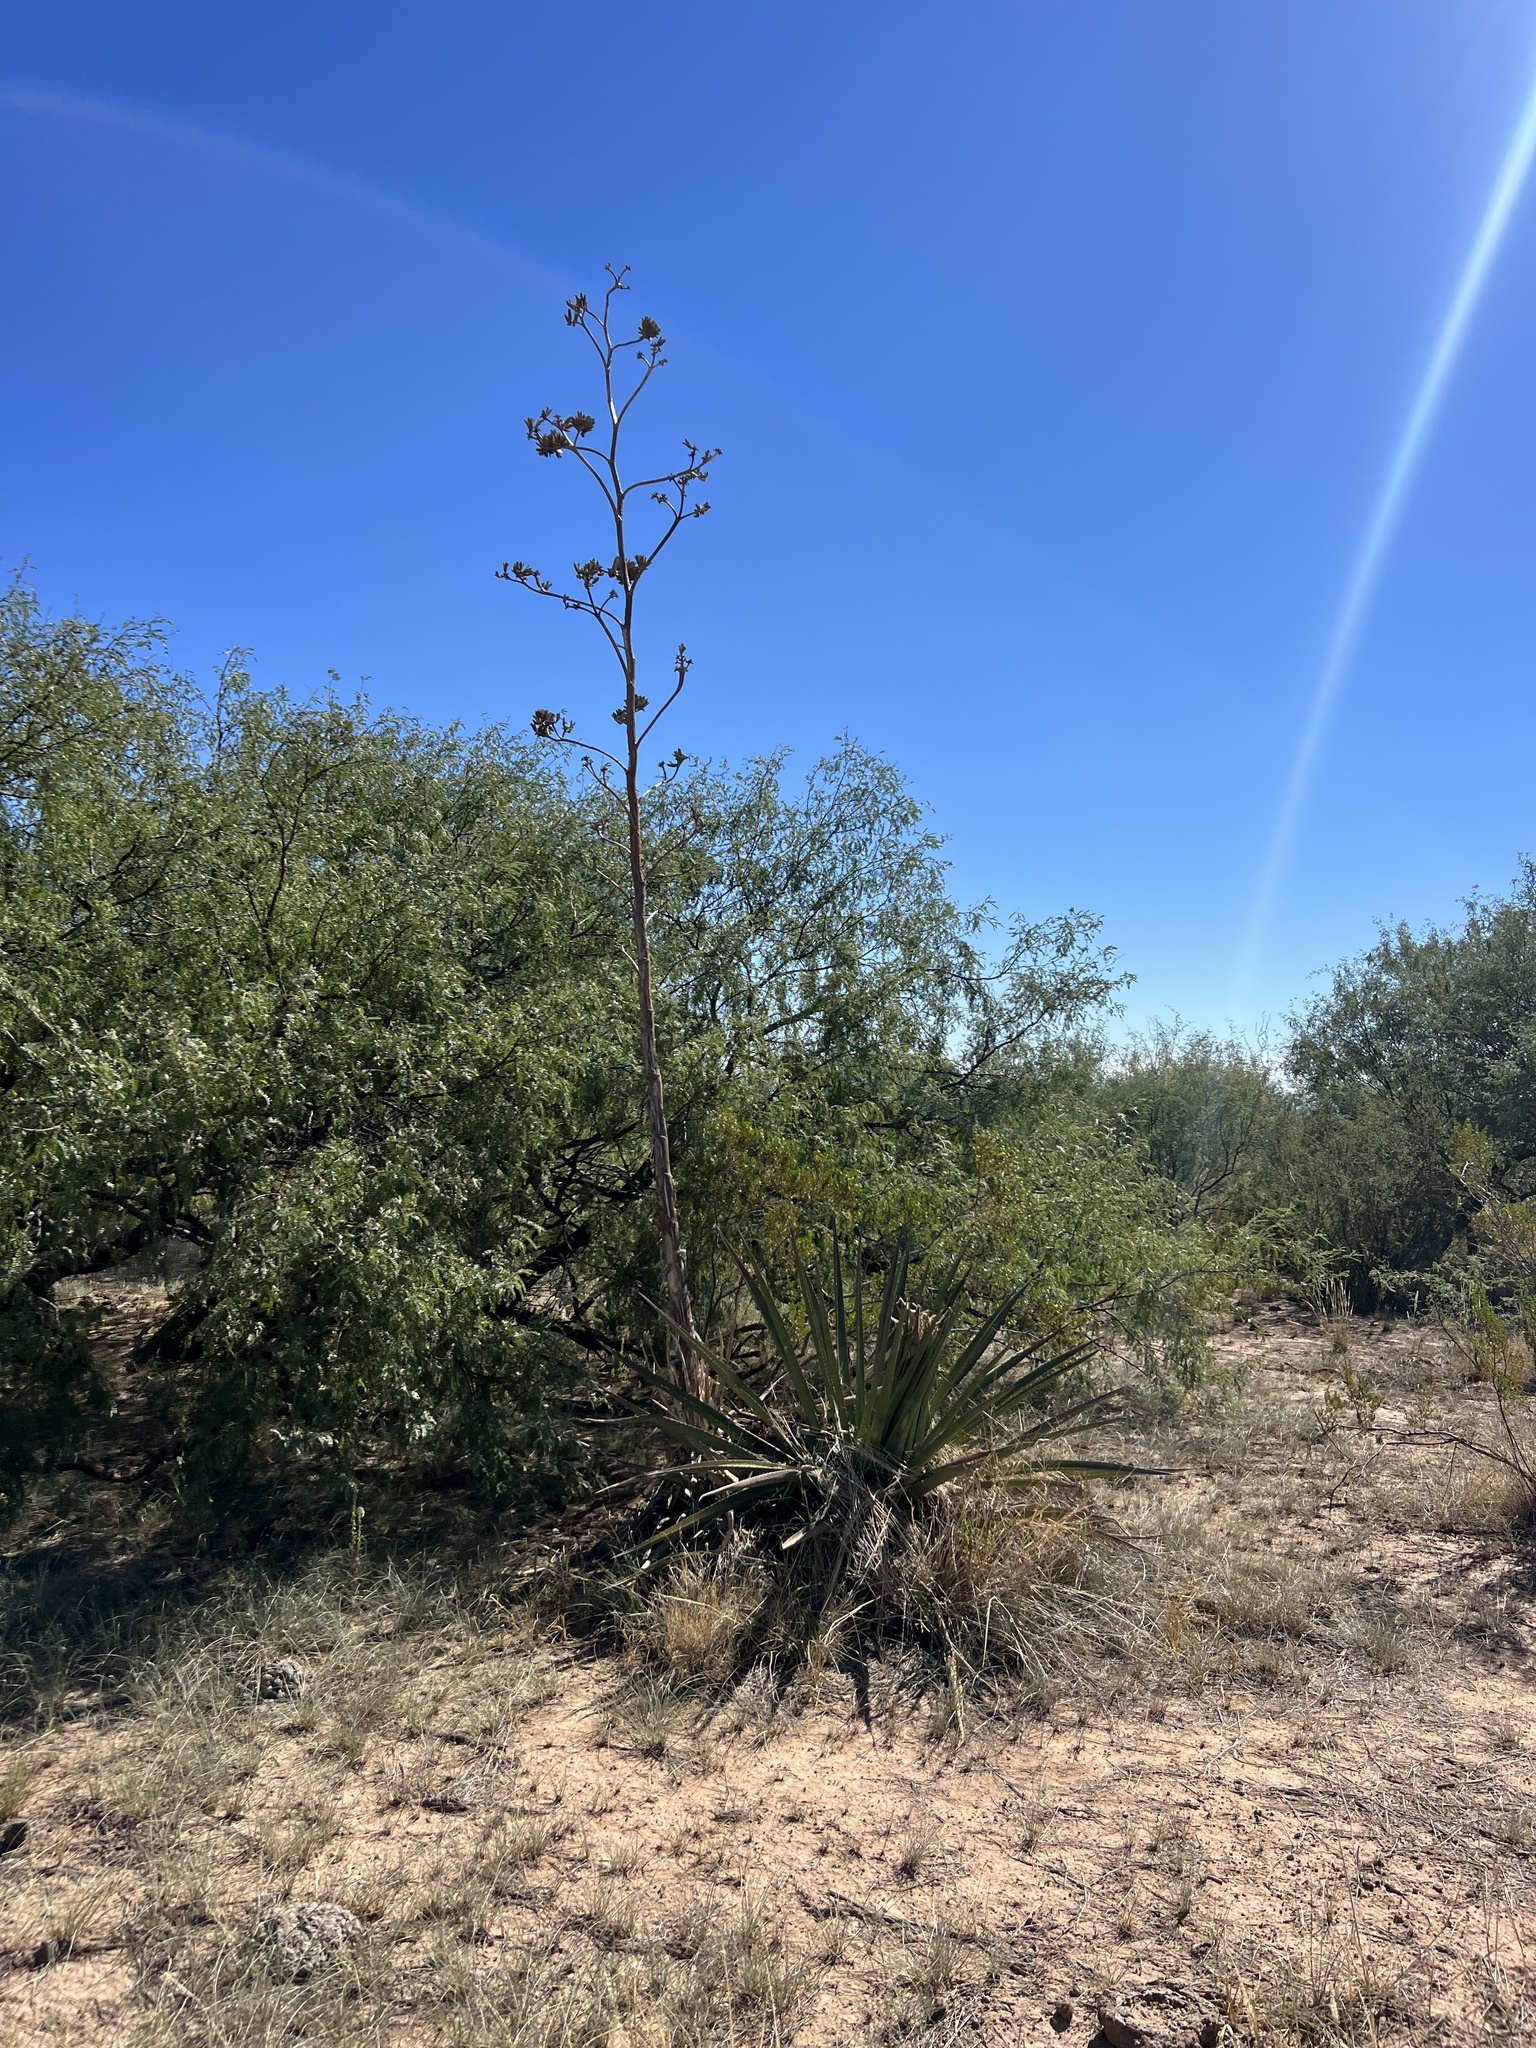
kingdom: Plantae
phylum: Tracheophyta
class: Liliopsida
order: Asparagales
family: Asparagaceae
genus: Agave
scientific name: Agave palmeri
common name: Palmer agave
